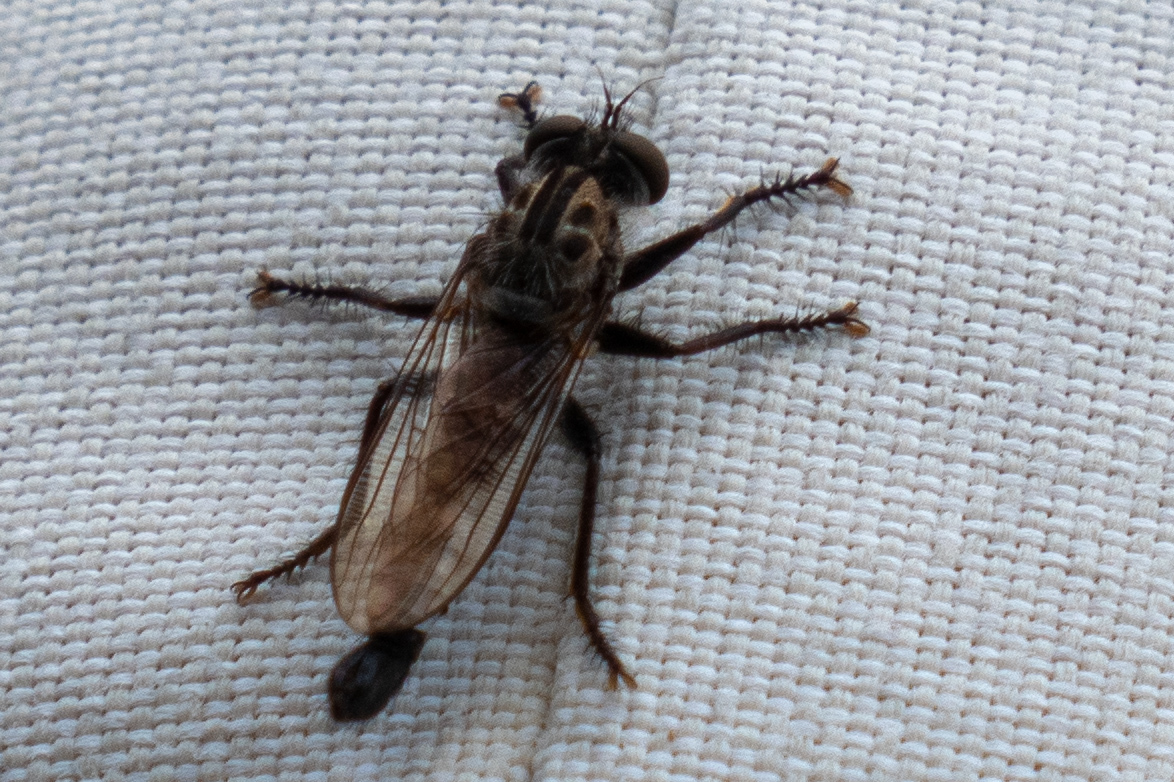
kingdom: Animalia
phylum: Arthropoda
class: Insecta
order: Diptera
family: Asilidae
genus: Efferia
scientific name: Efferia aestuans
